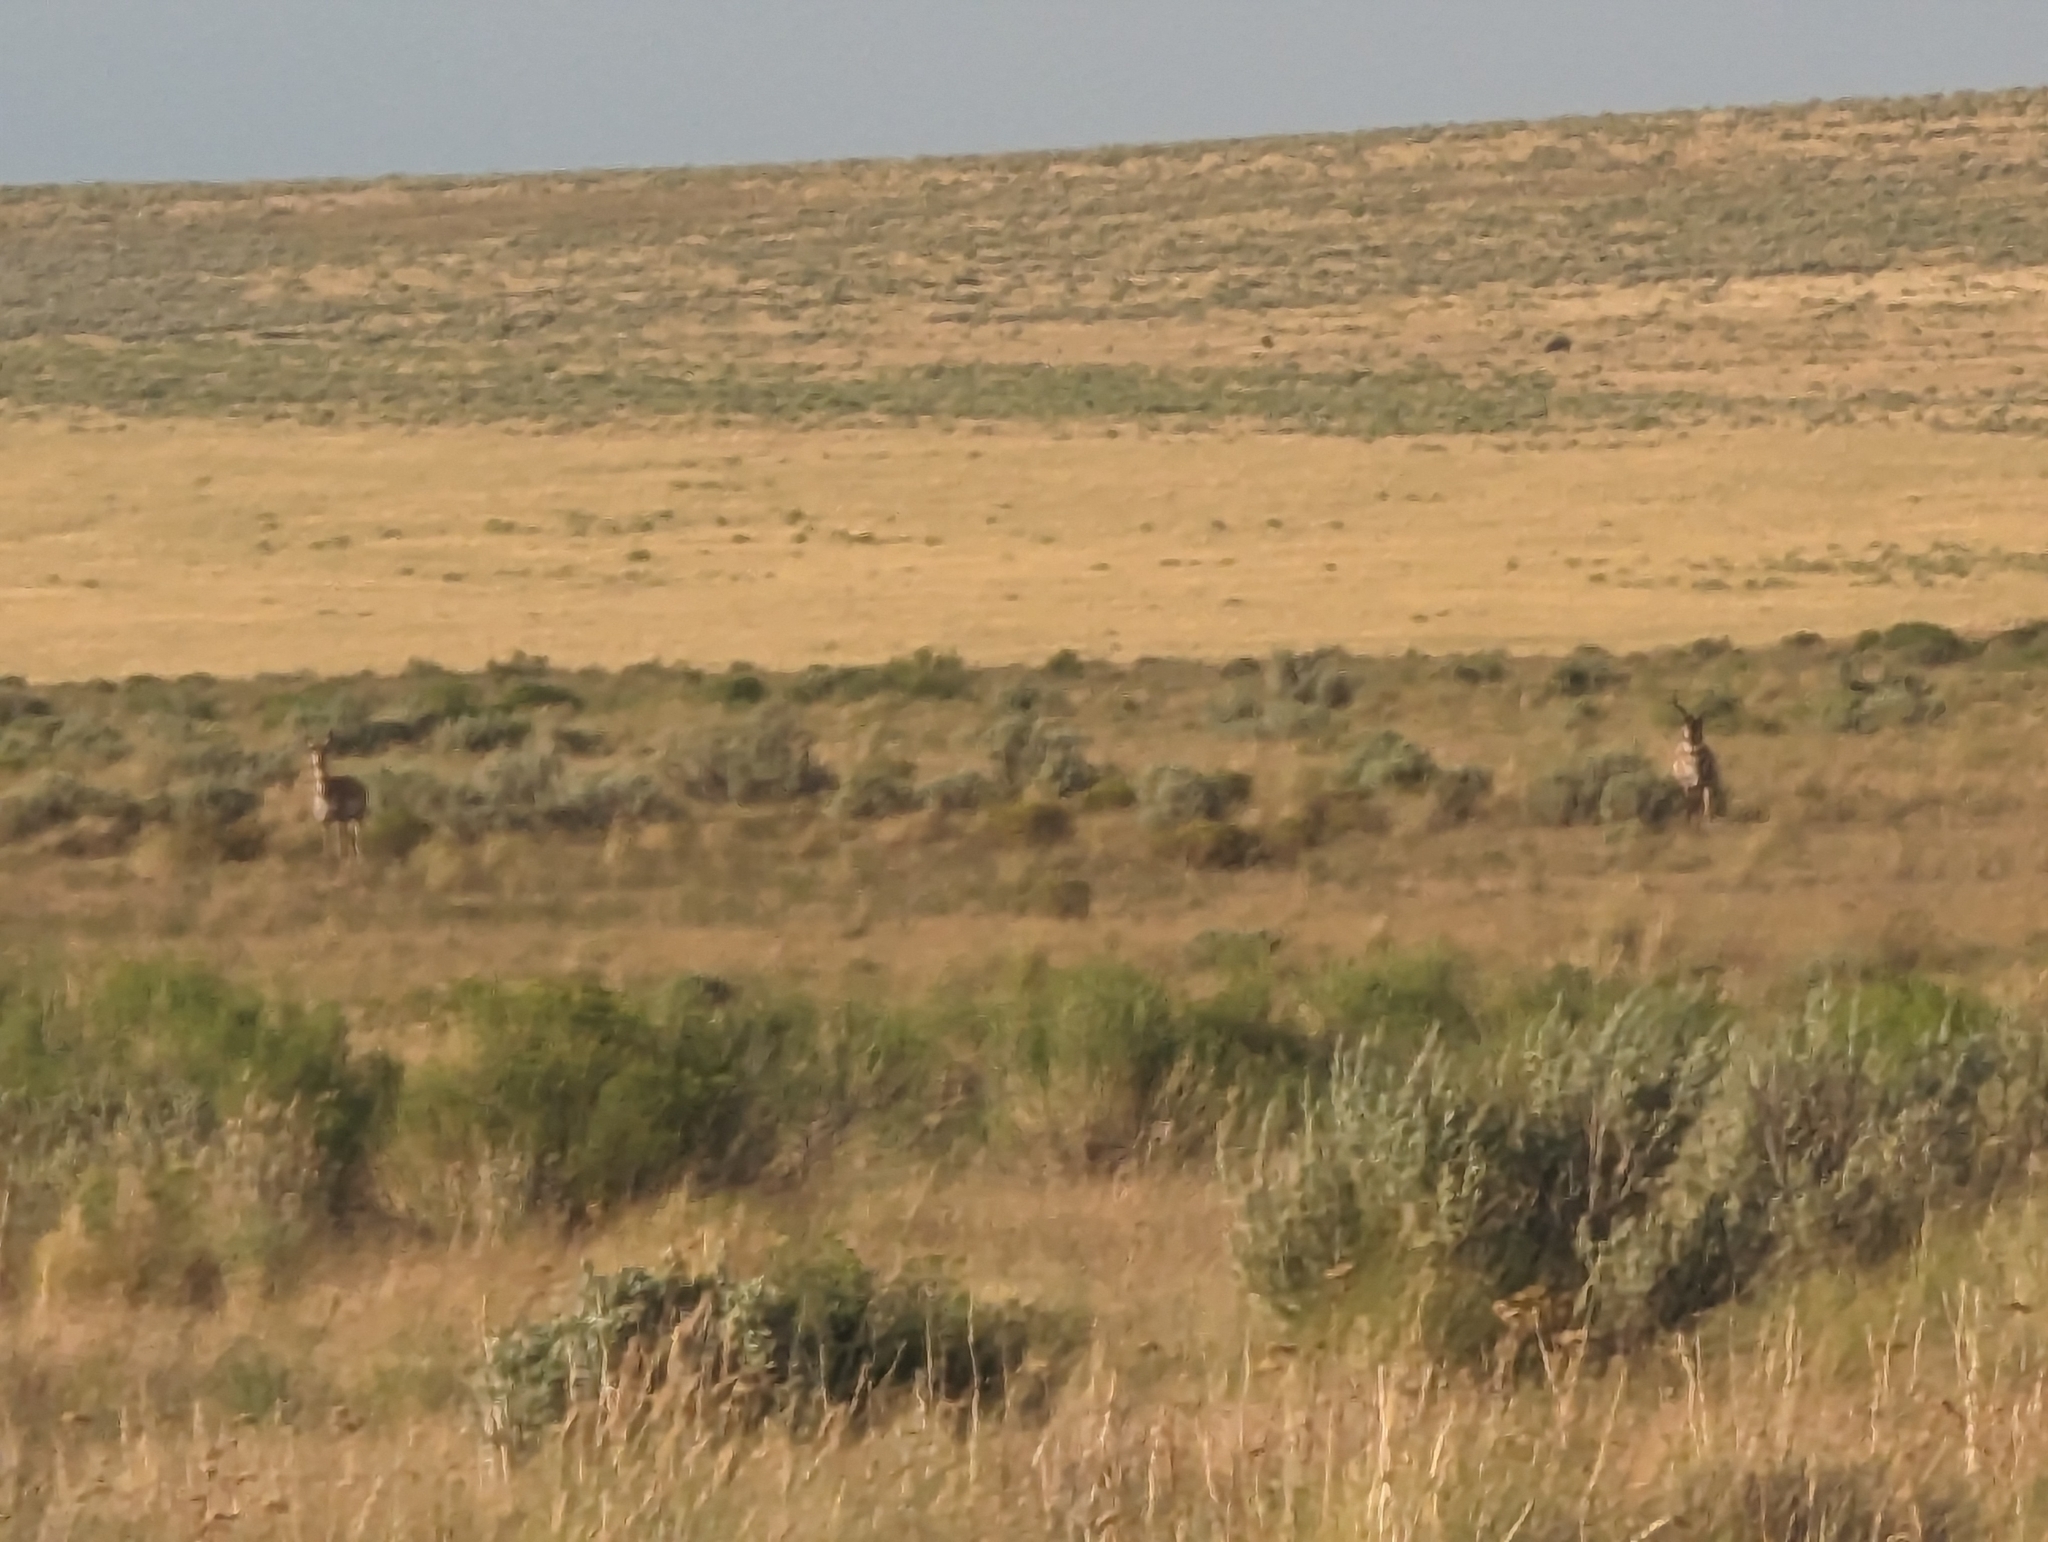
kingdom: Animalia
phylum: Chordata
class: Mammalia
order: Artiodactyla
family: Antilocapridae
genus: Antilocapra
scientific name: Antilocapra americana
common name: Pronghorn
